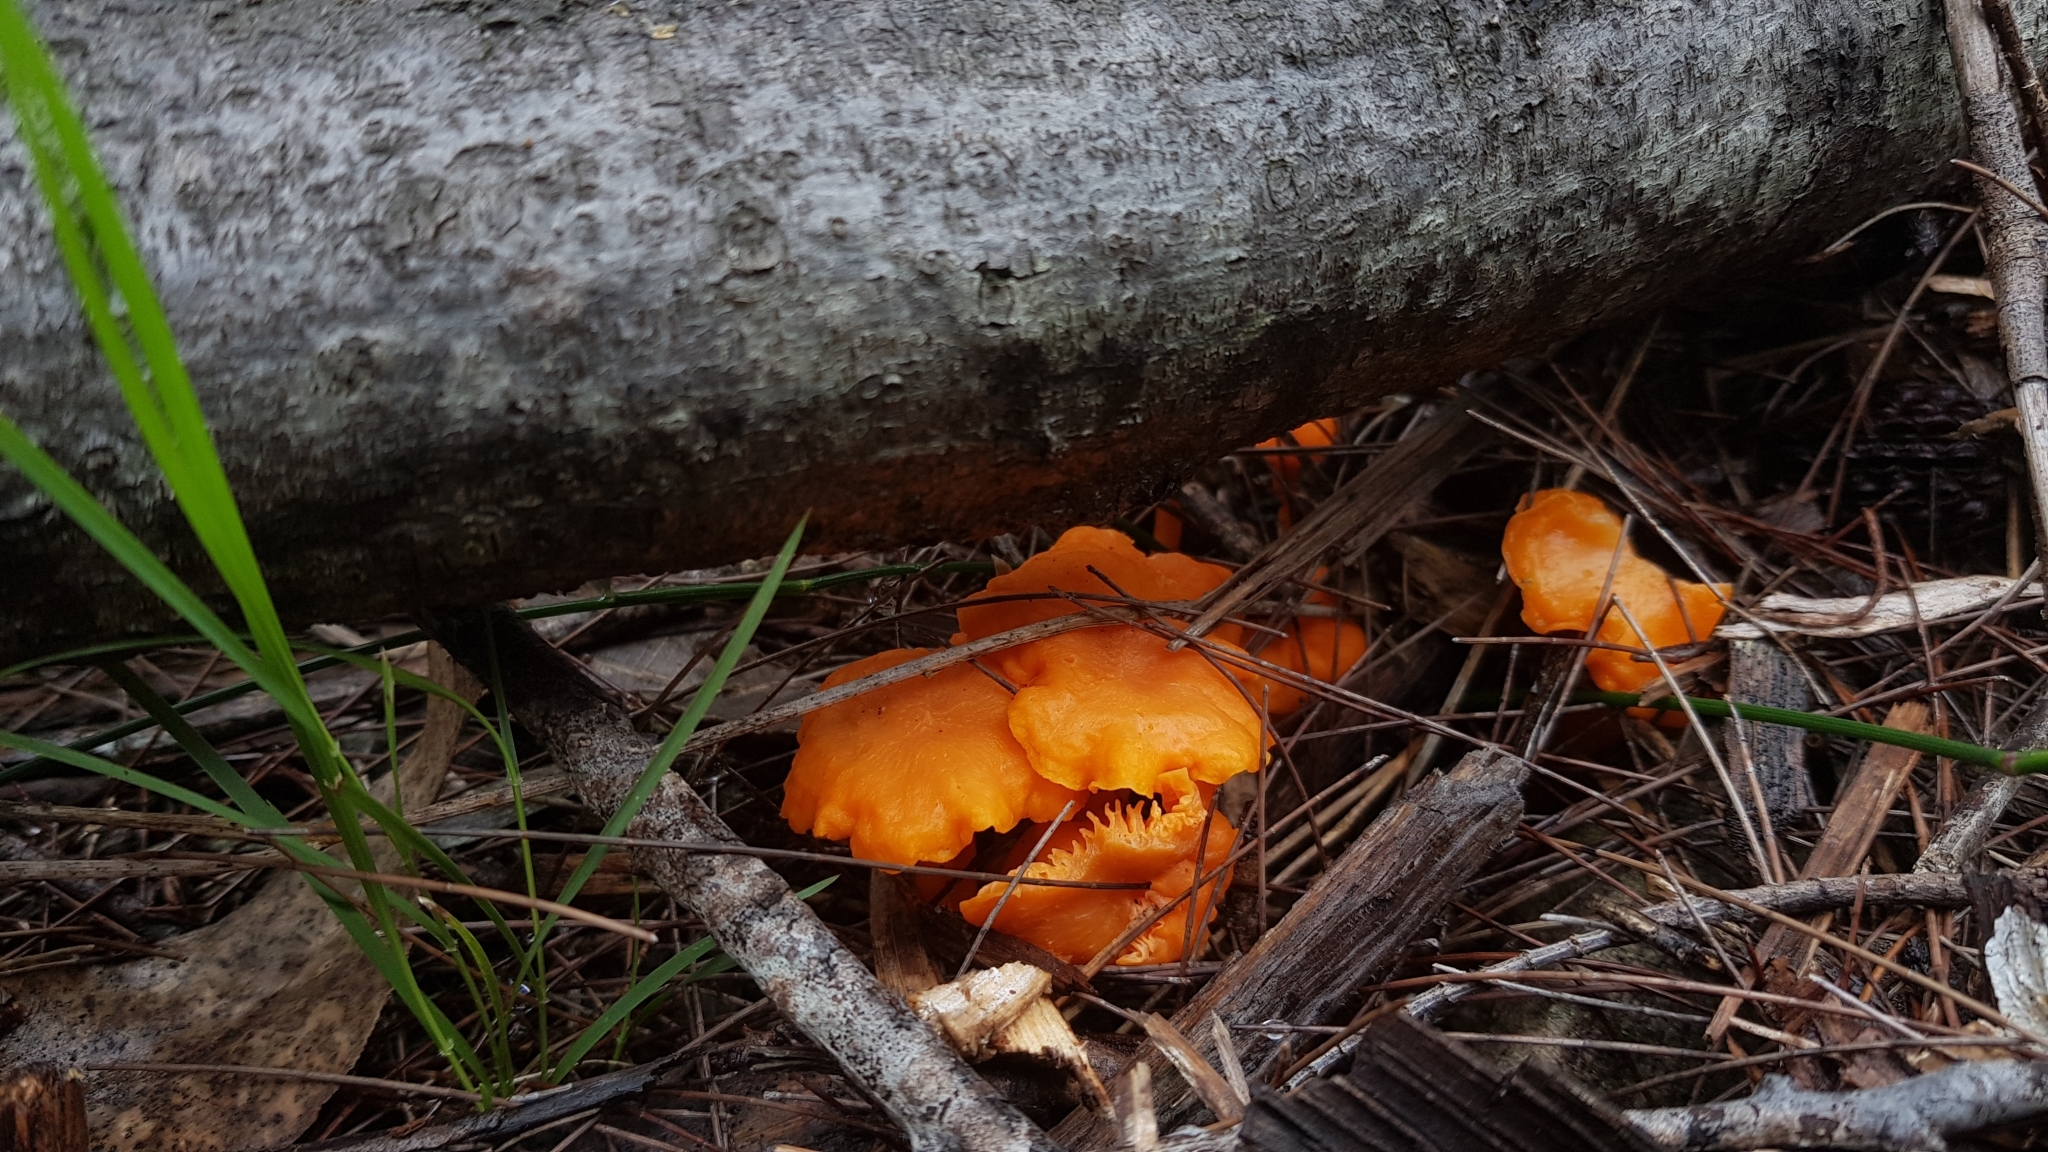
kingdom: Fungi
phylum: Basidiomycota
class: Agaricomycetes
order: Cantharellales
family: Hydnaceae
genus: Cantharellus
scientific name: Cantharellus
